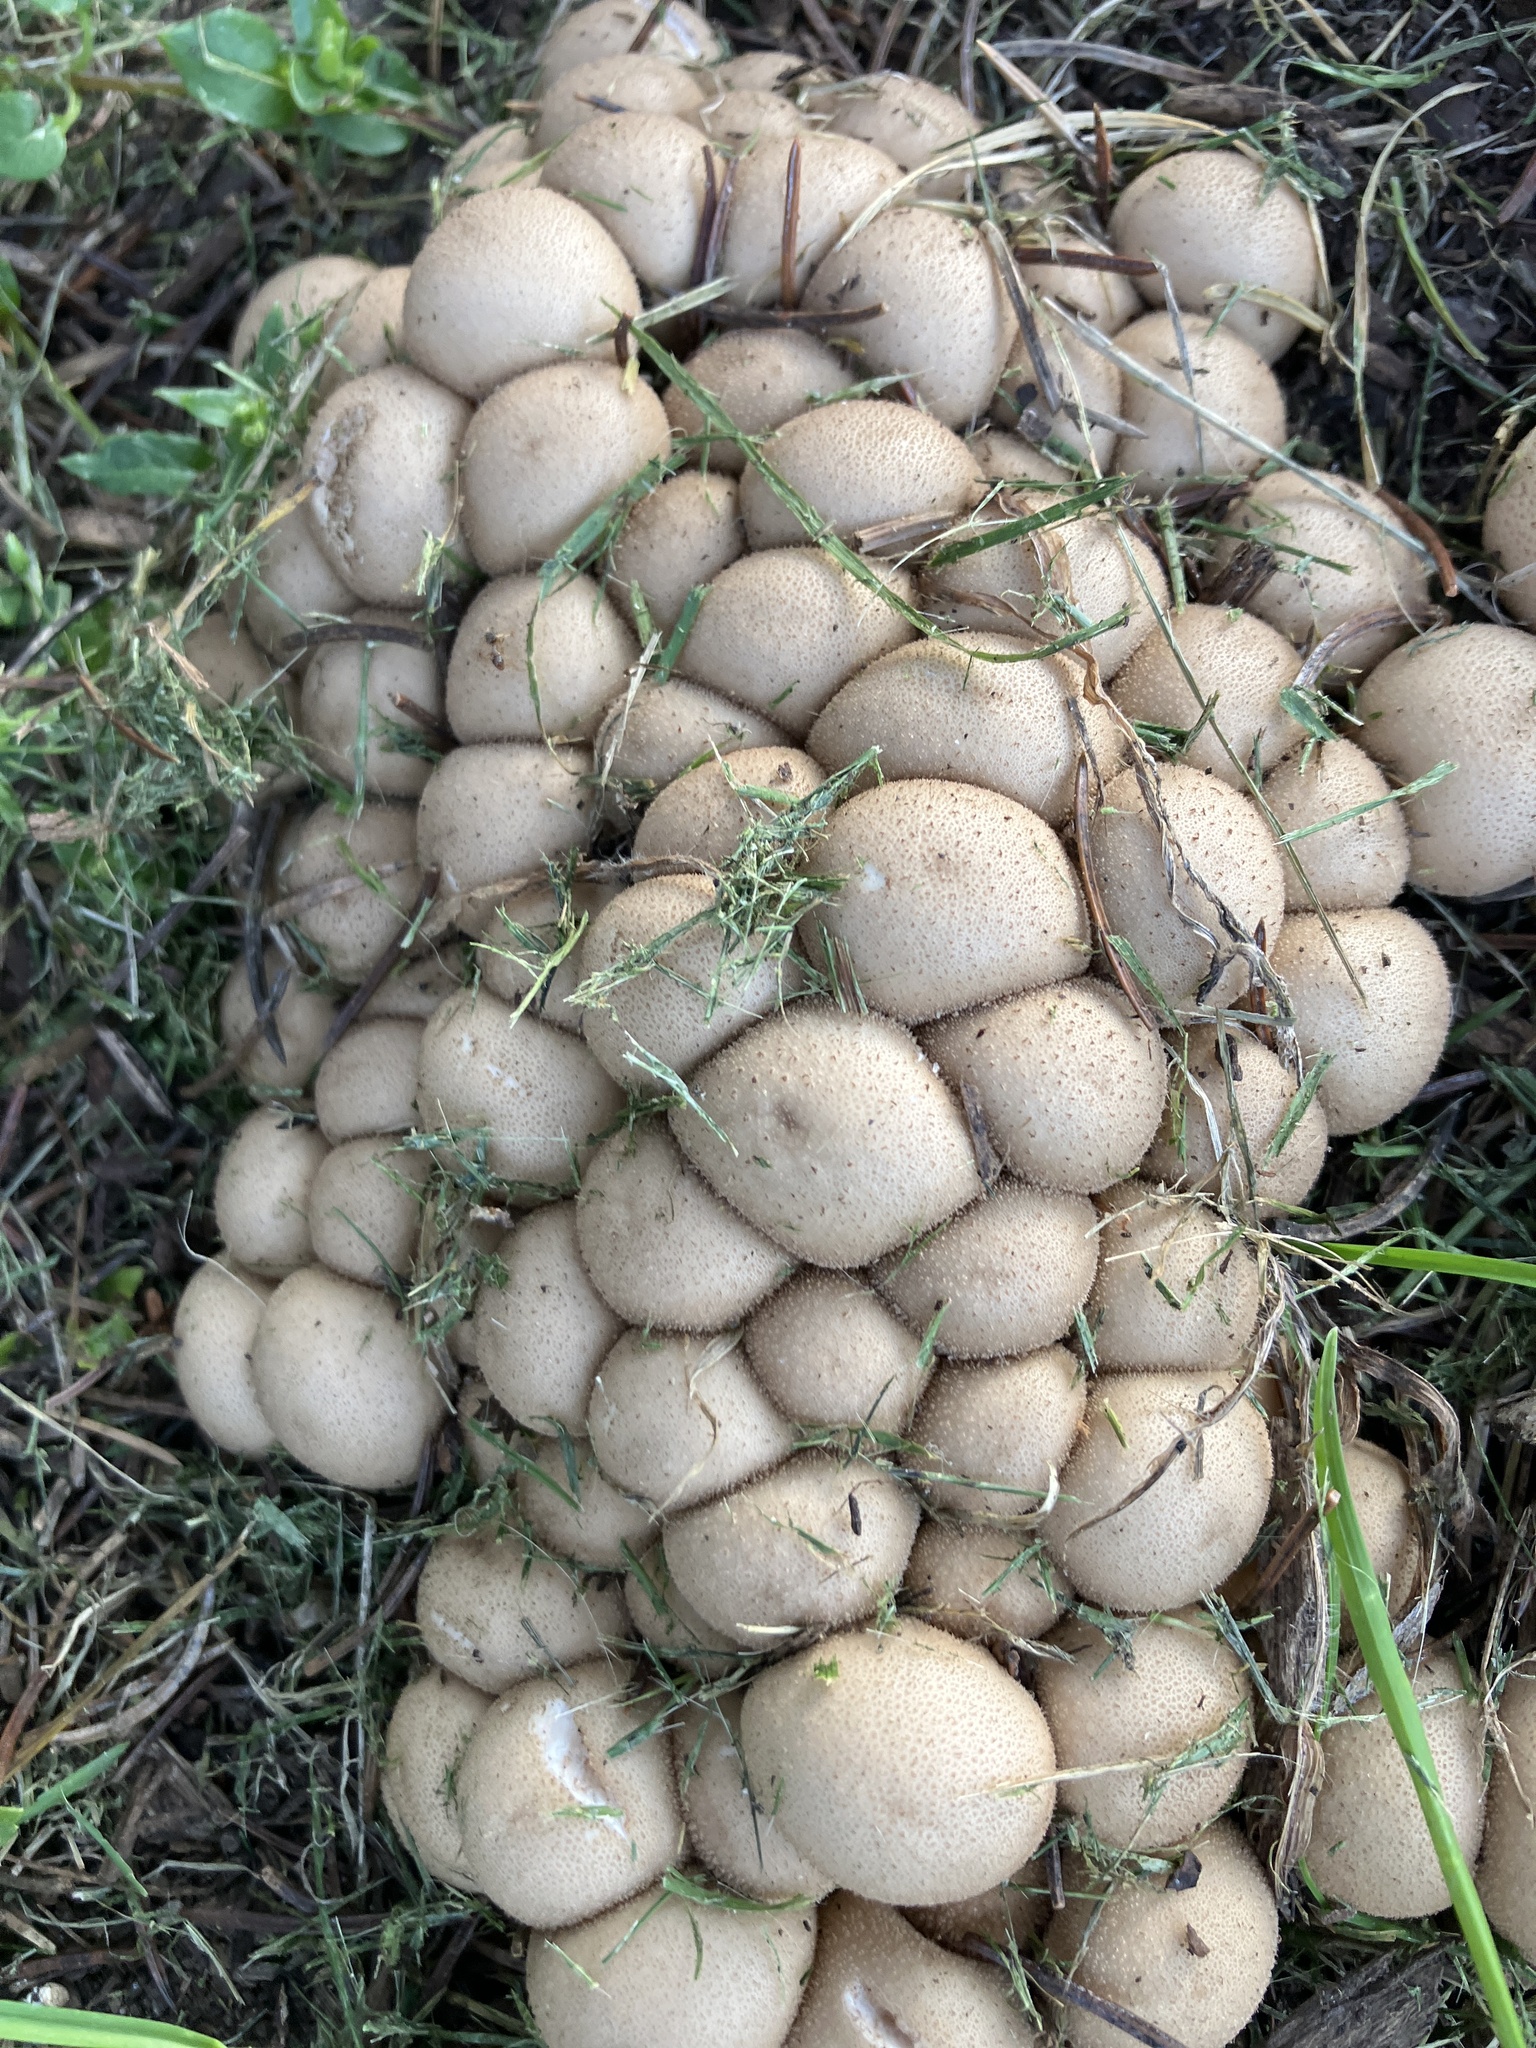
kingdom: Fungi
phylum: Basidiomycota
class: Agaricomycetes
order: Agaricales
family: Lycoperdaceae
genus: Apioperdon
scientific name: Apioperdon pyriforme
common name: Pear-shaped puffball
